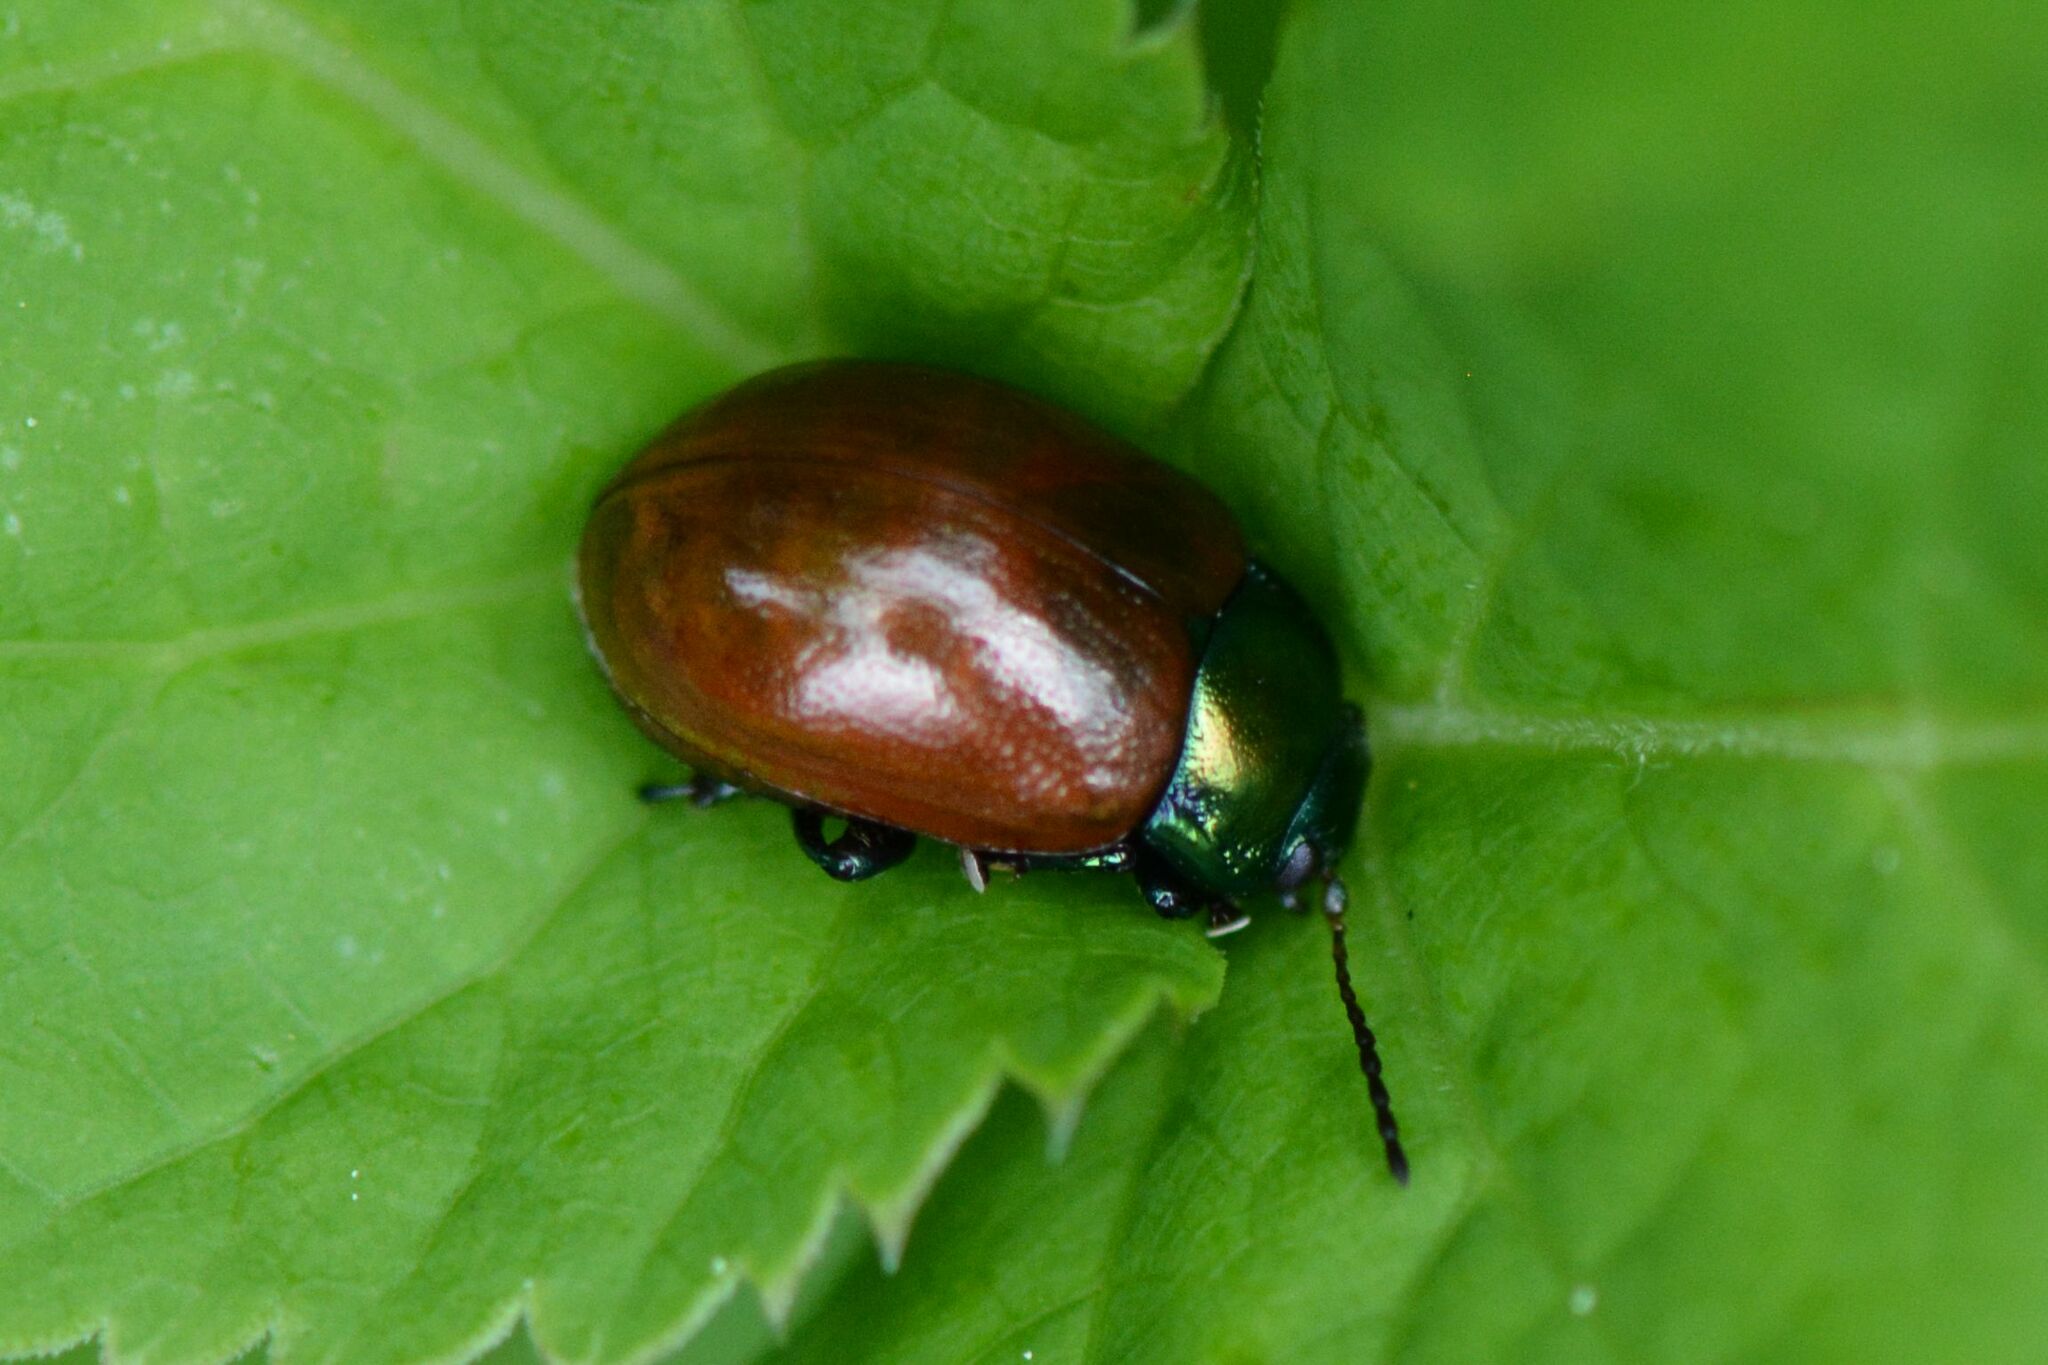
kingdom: Animalia
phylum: Arthropoda
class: Insecta
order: Coleoptera
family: Chrysomelidae
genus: Chrysomela
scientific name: Chrysomela polita
